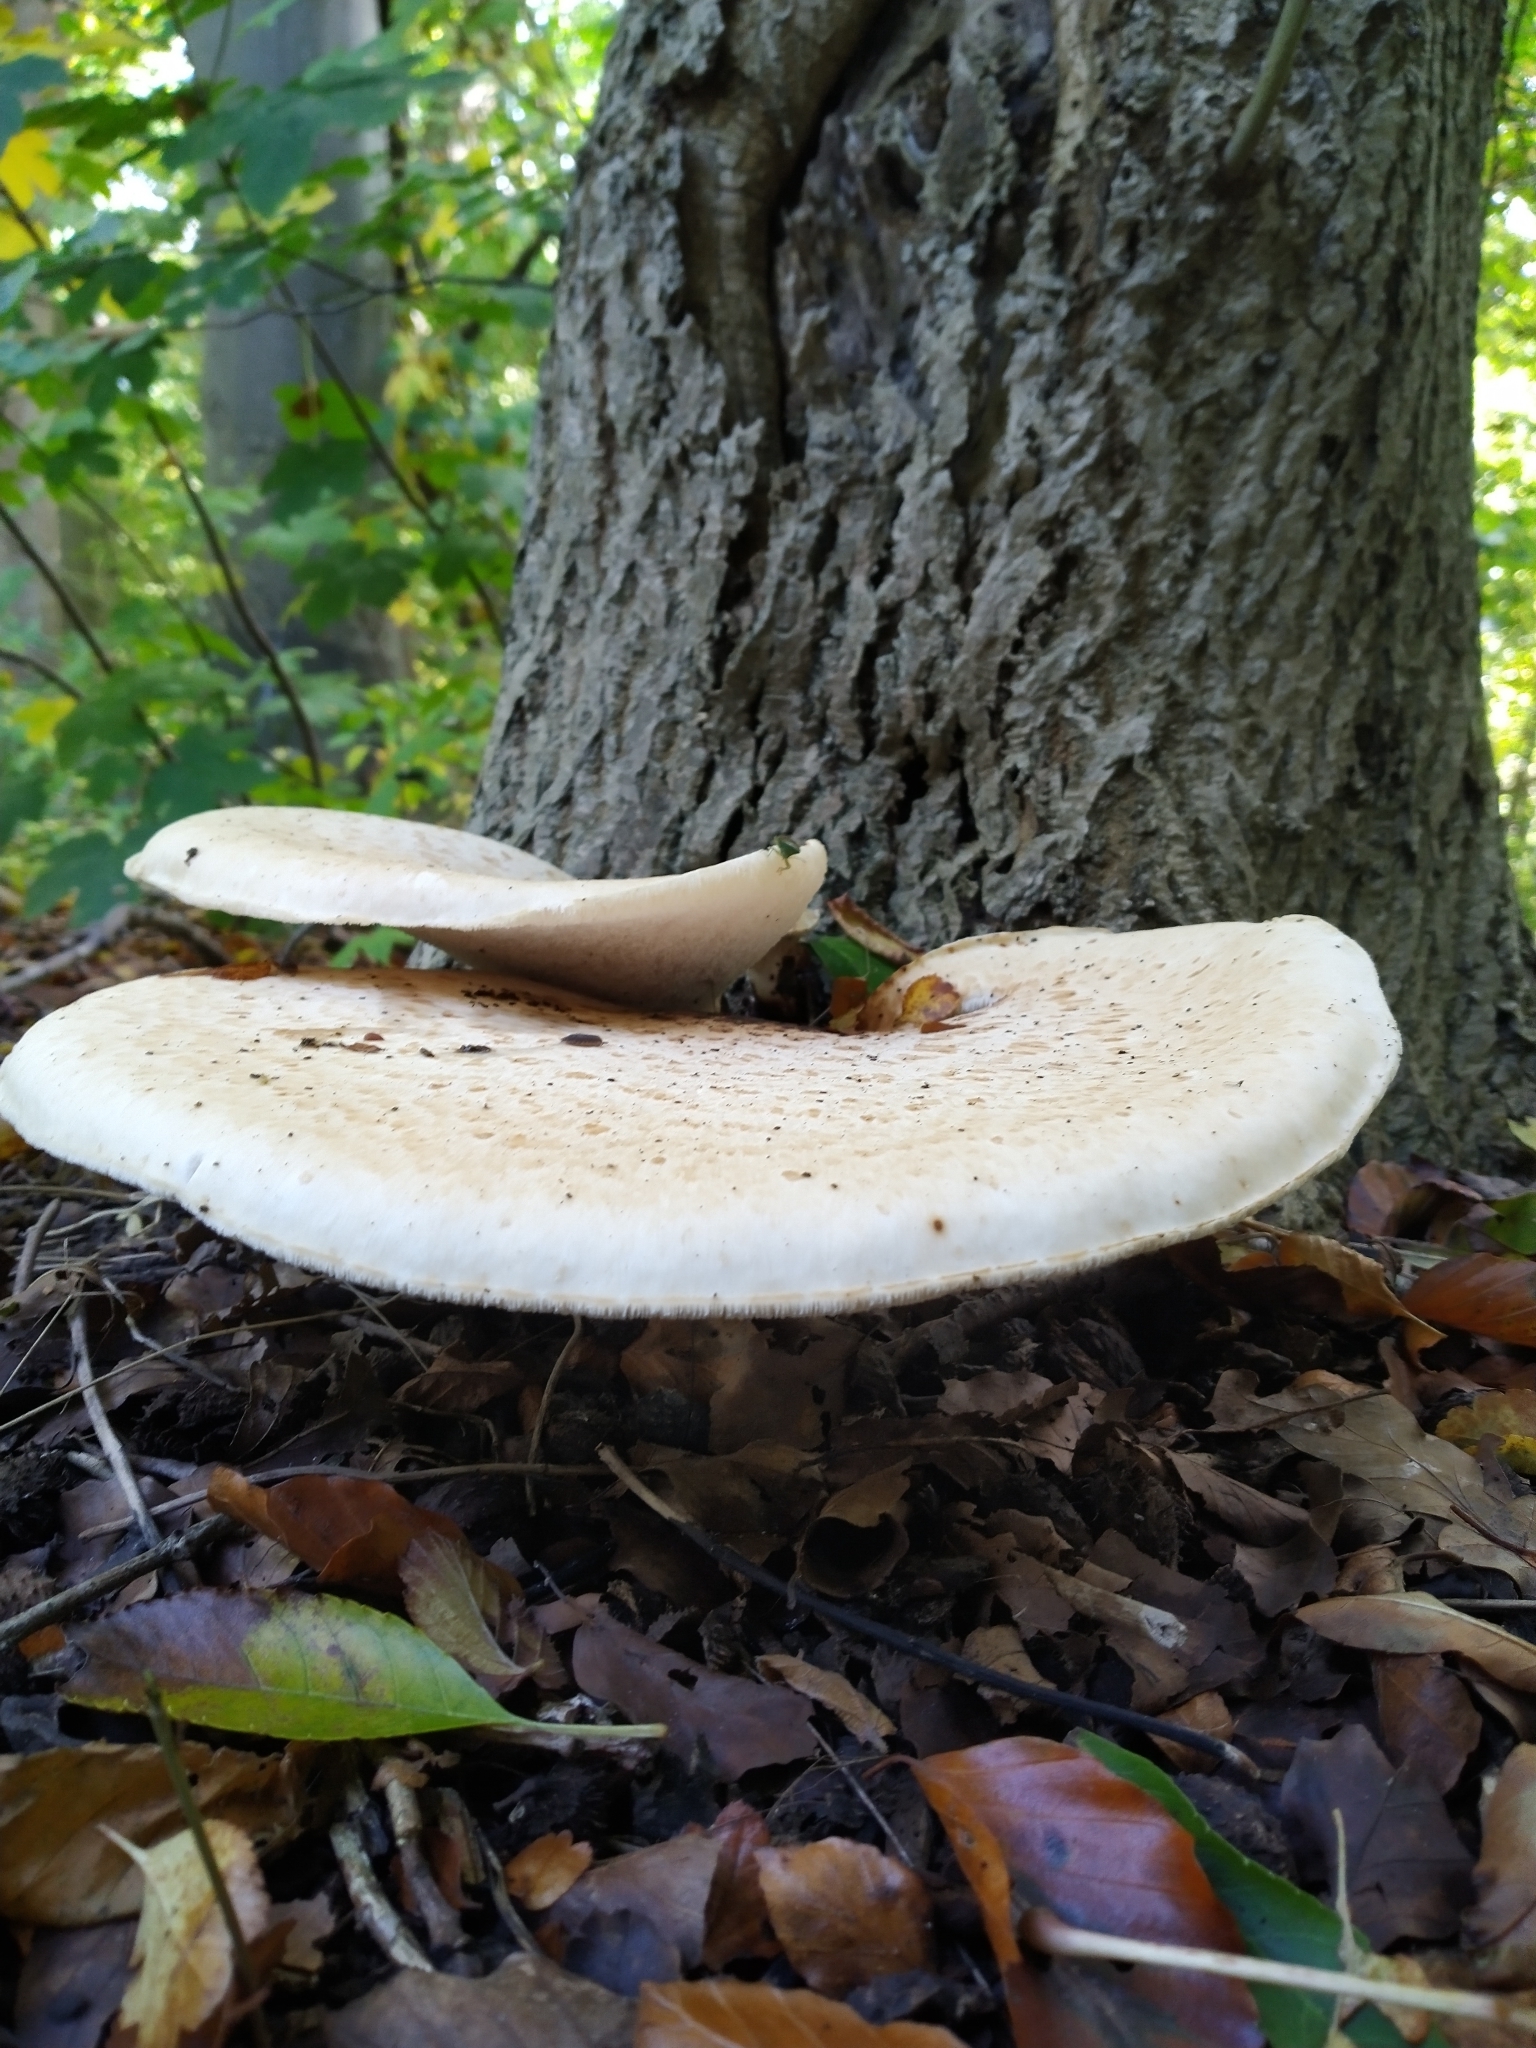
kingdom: Fungi
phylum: Basidiomycota
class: Agaricomycetes
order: Polyporales
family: Polyporaceae
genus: Cerioporus
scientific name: Cerioporus squamosus
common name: Dryad's saddle
